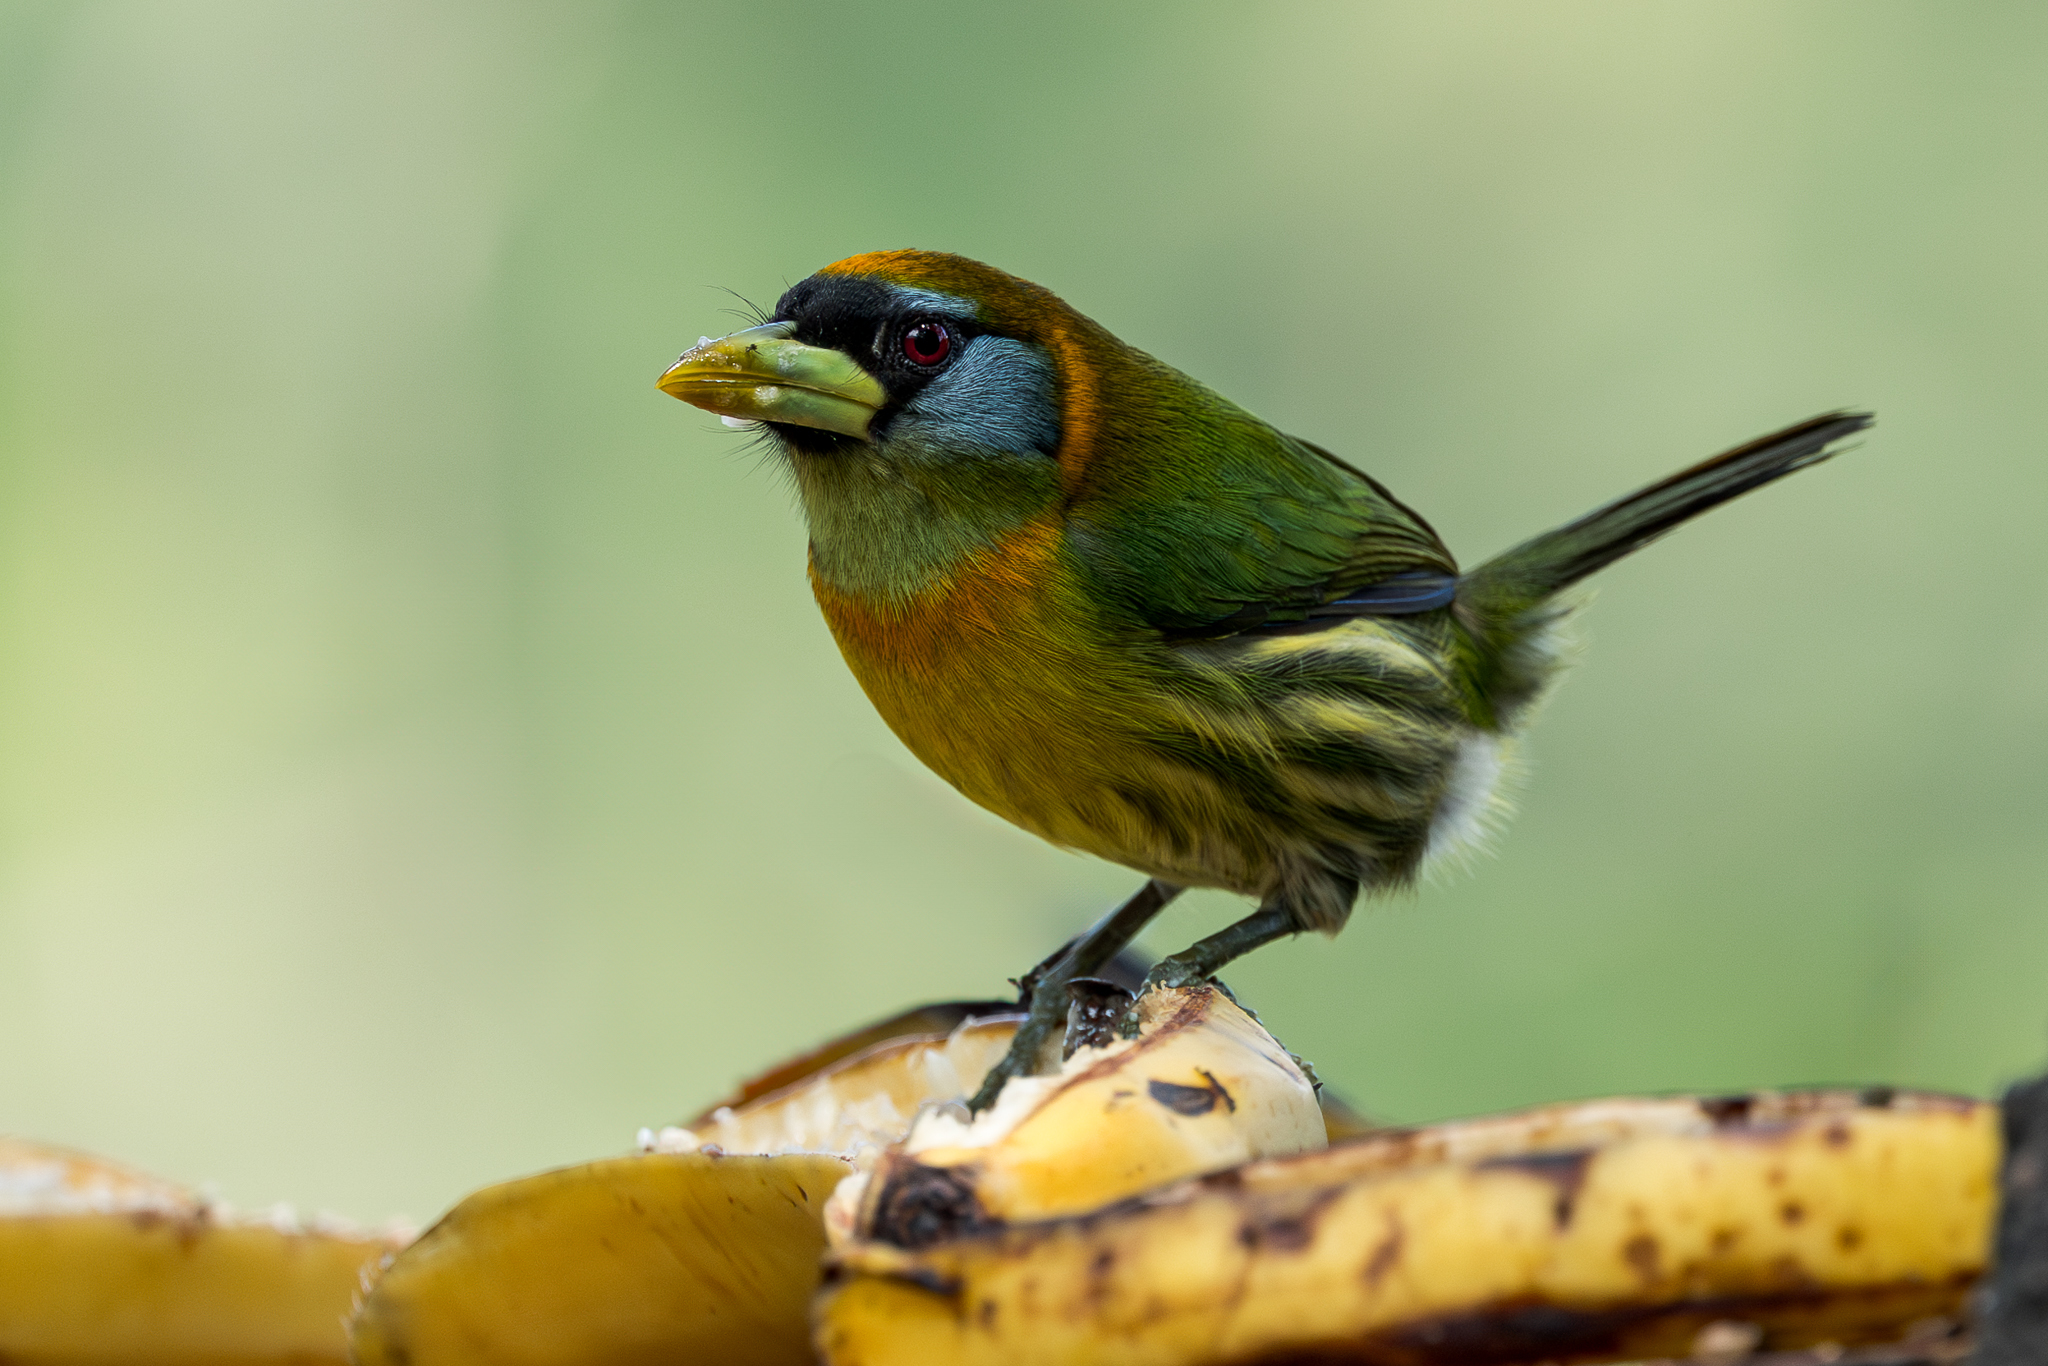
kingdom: Animalia
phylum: Chordata
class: Aves
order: Piciformes
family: Capitonidae
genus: Eubucco
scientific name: Eubucco bourcierii
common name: Red-headed barbet
